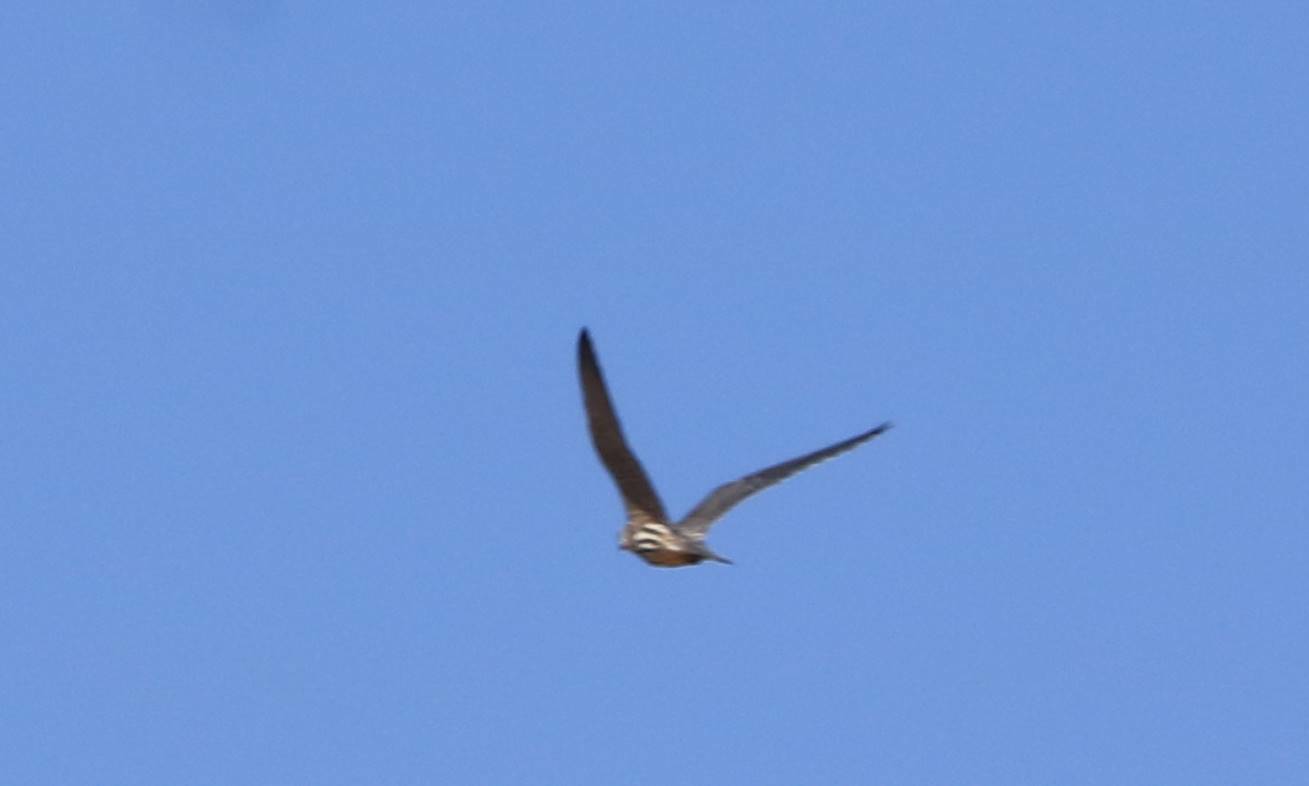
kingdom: Animalia
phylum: Chordata
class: Aves
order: Falconiformes
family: Falconidae
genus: Falco
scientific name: Falco subbuteo
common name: Eurasian hobby
